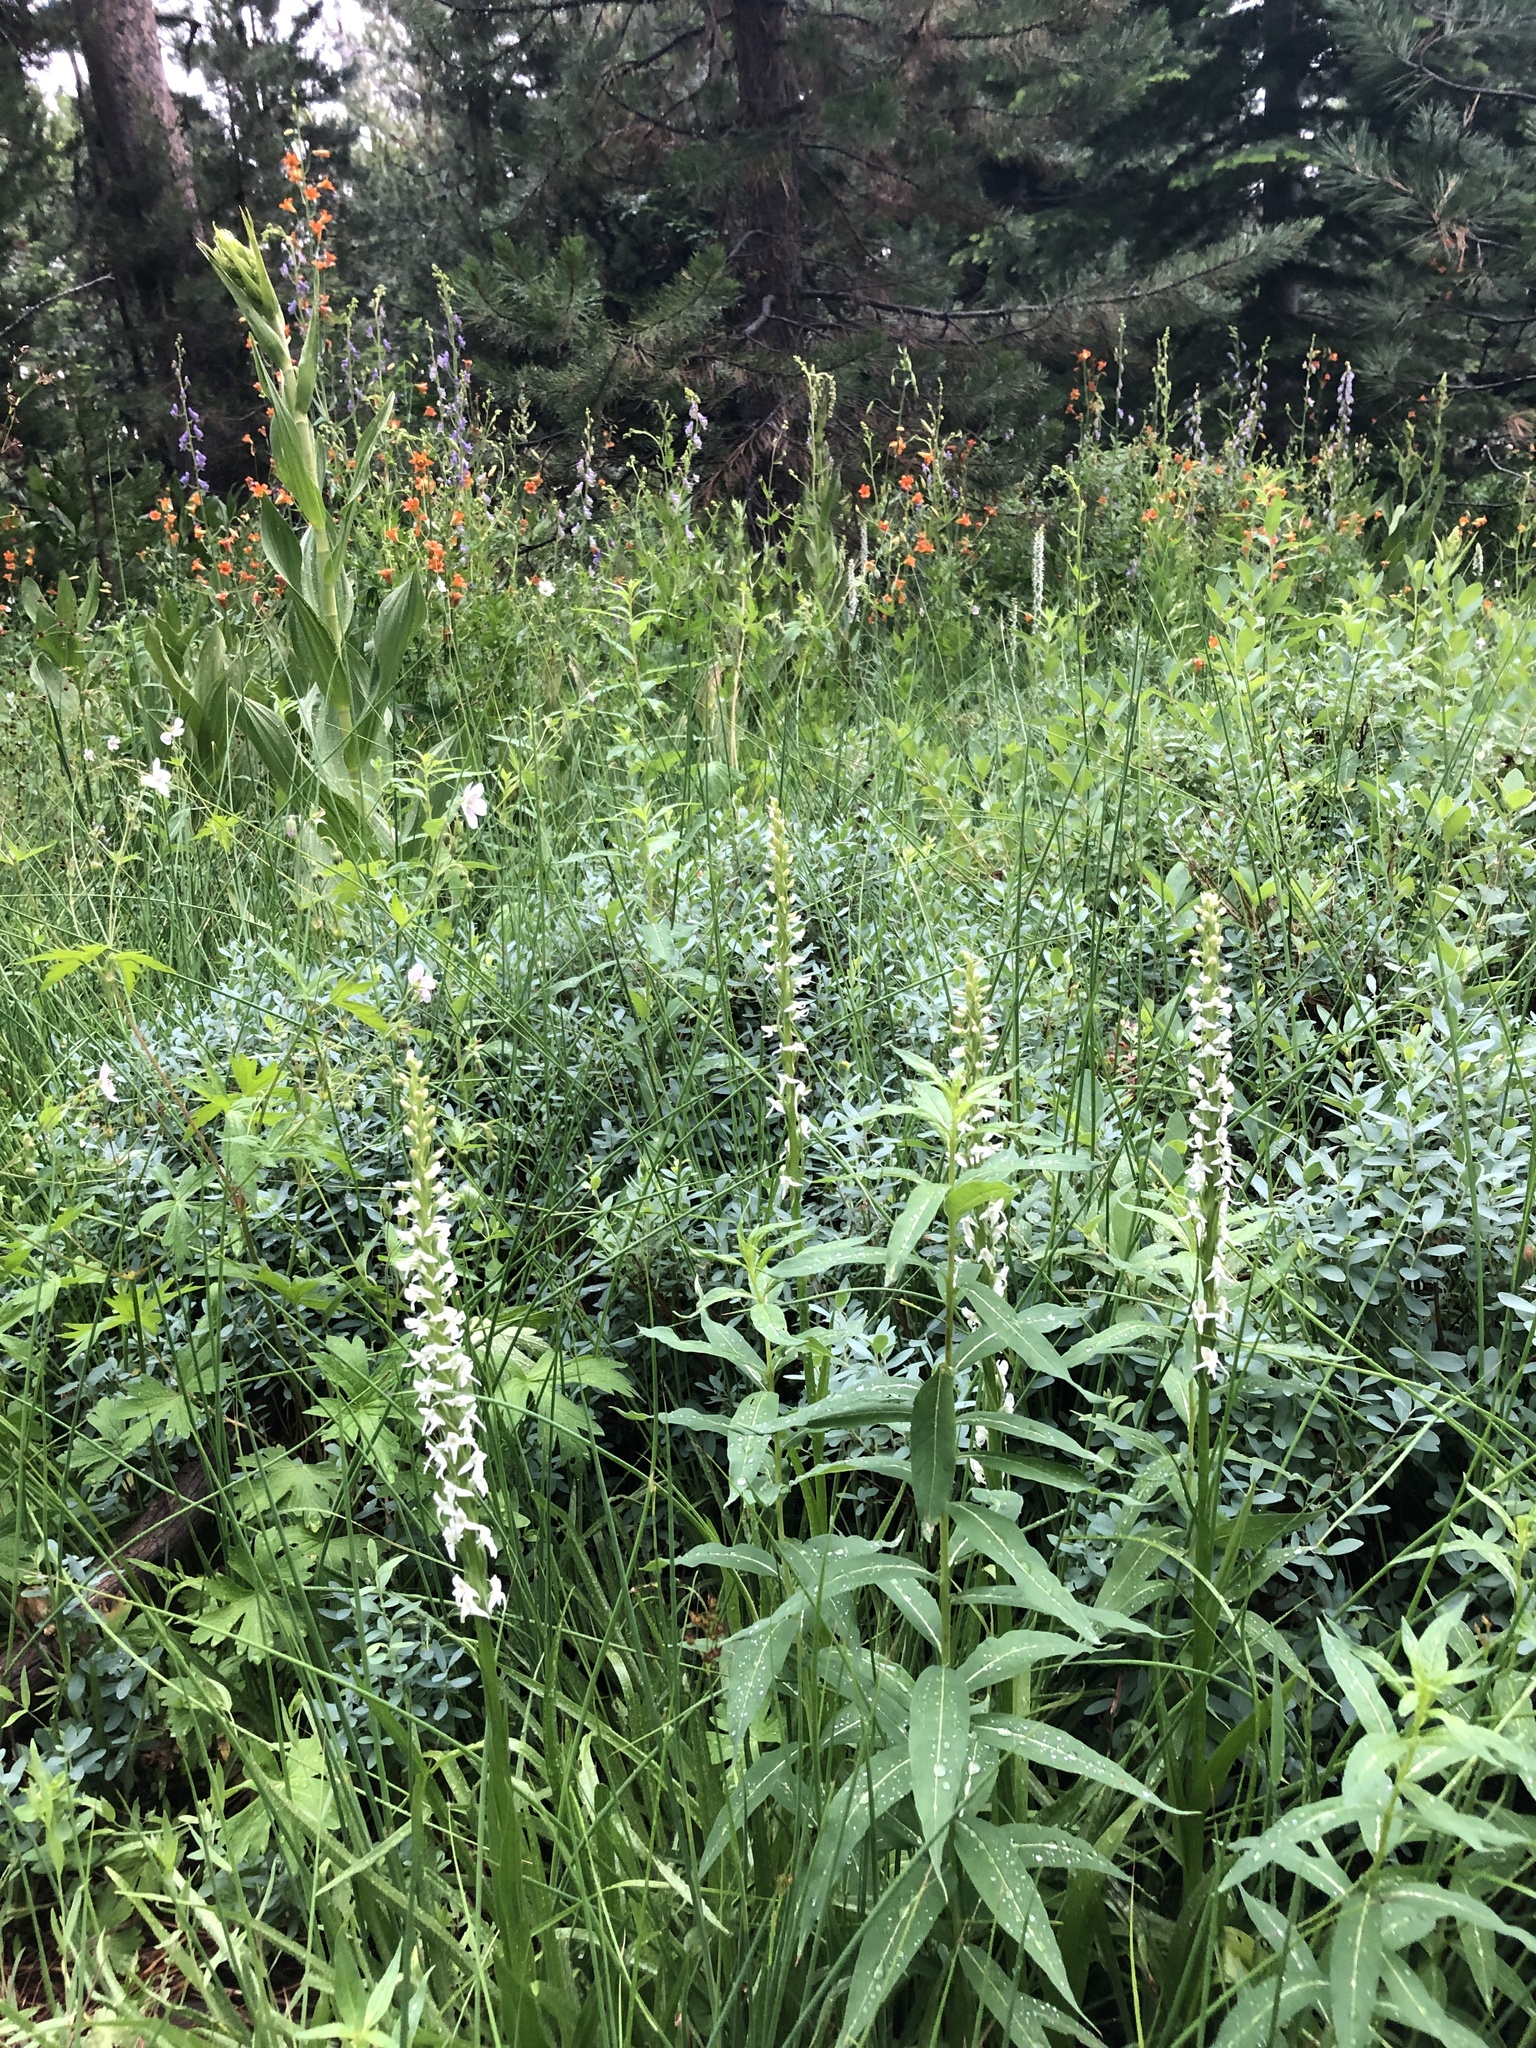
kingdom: Plantae
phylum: Tracheophyta
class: Liliopsida
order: Asparagales
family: Orchidaceae
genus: Platanthera
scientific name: Platanthera dilatata
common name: Bog candles
